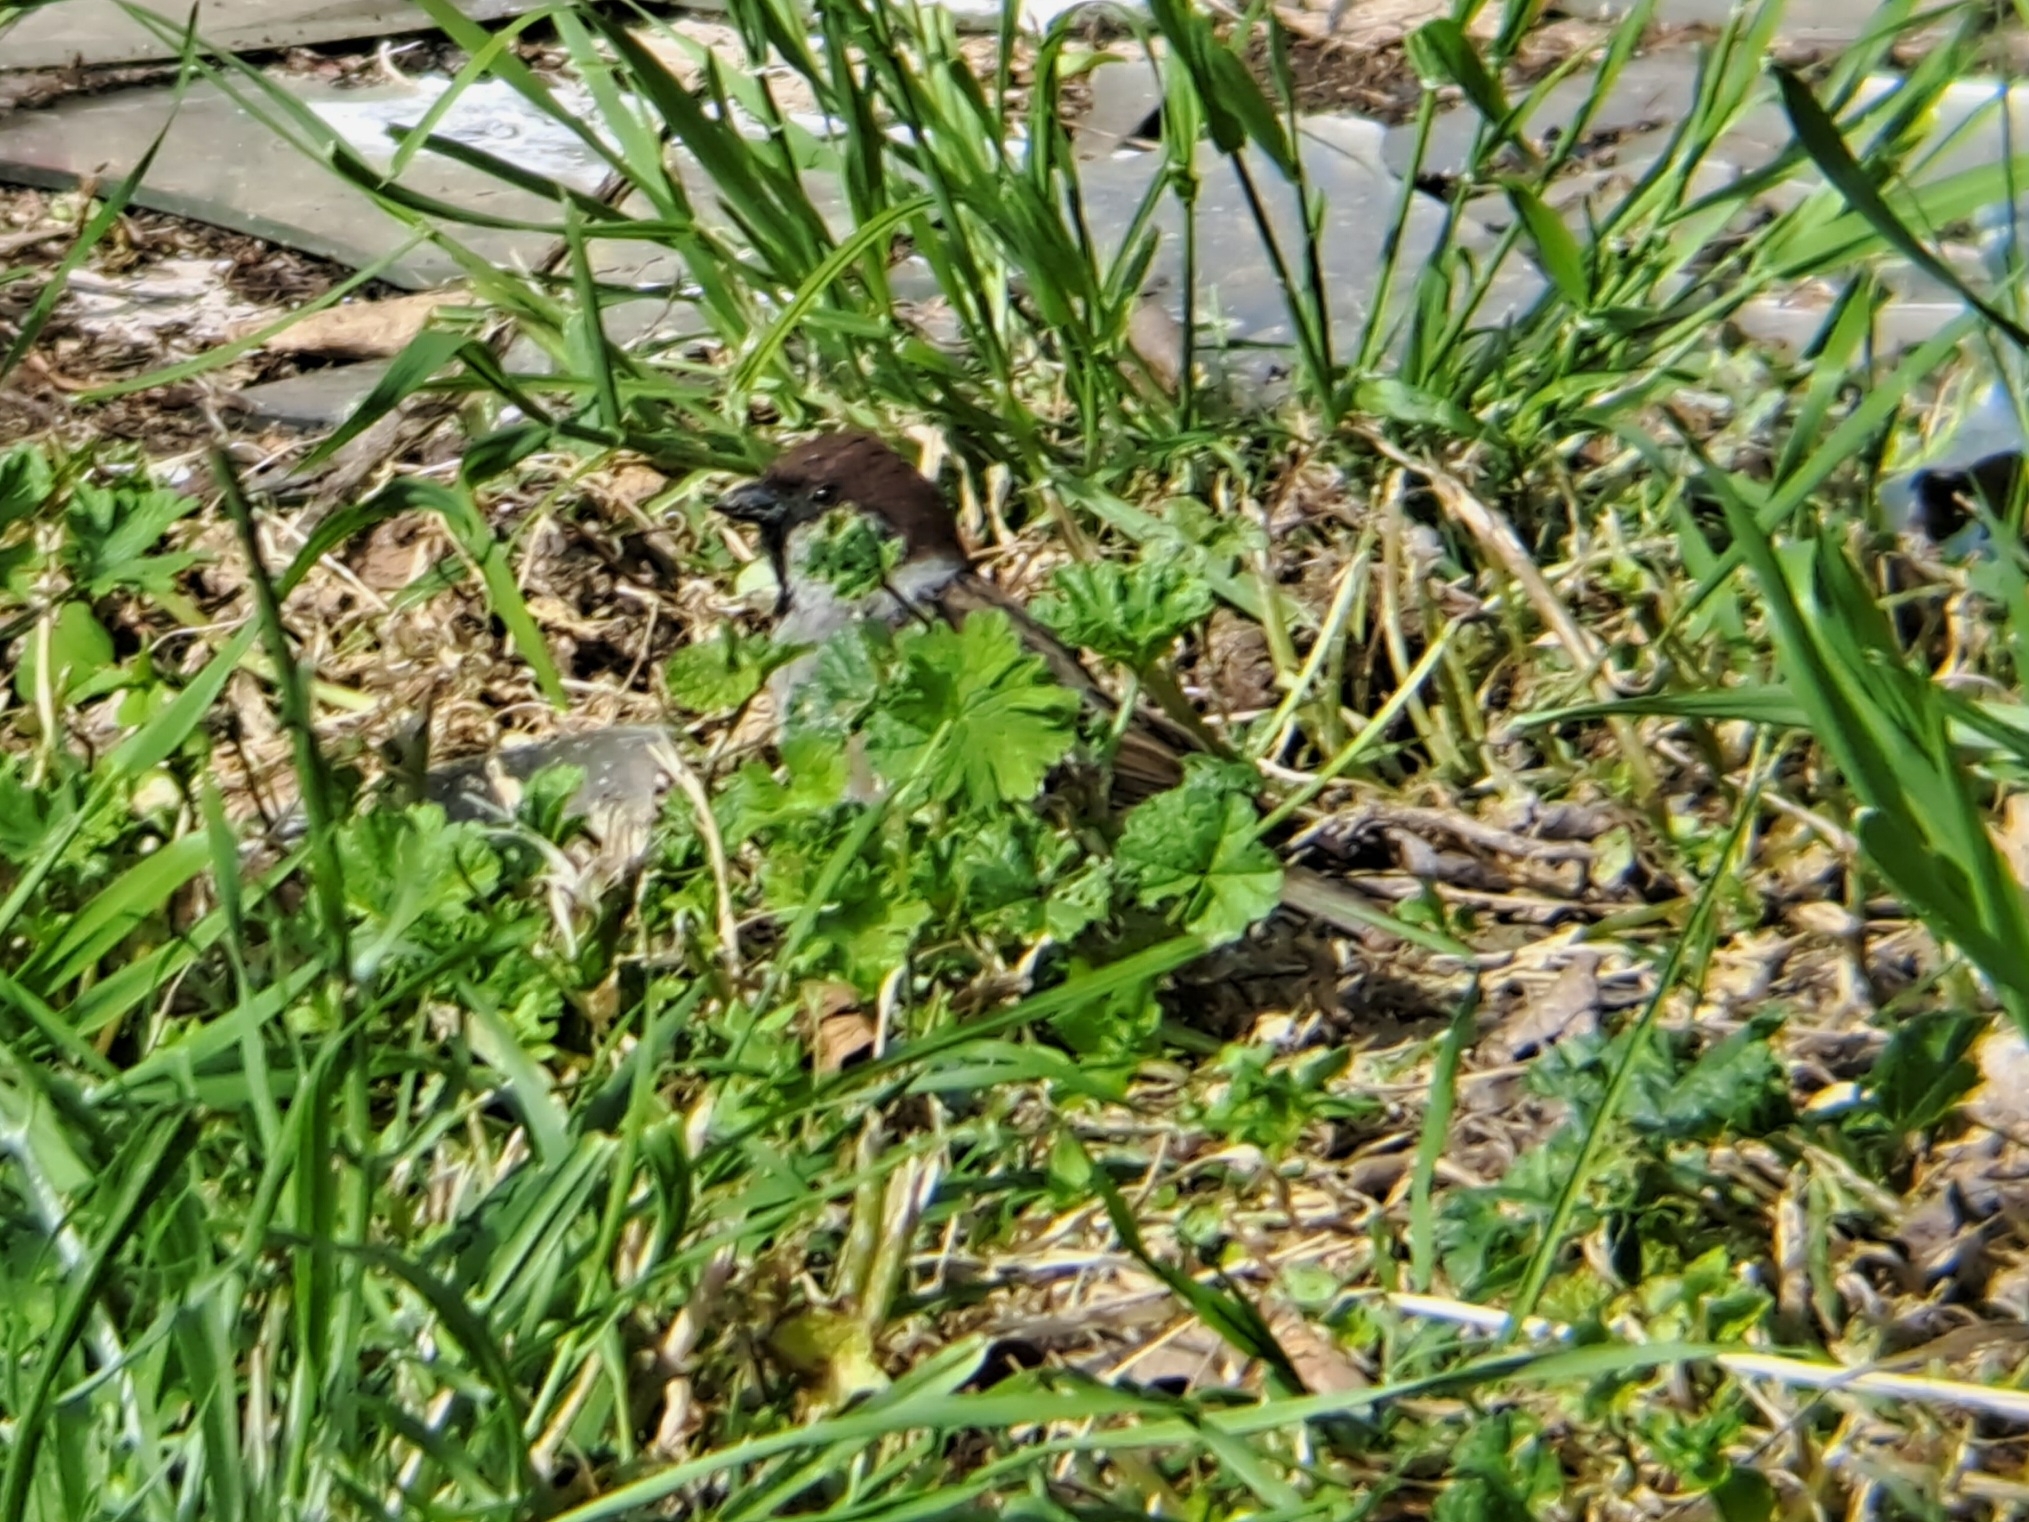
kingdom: Animalia
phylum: Chordata
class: Aves
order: Passeriformes
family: Passeridae
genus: Passer
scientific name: Passer montanus
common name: Eurasian tree sparrow
